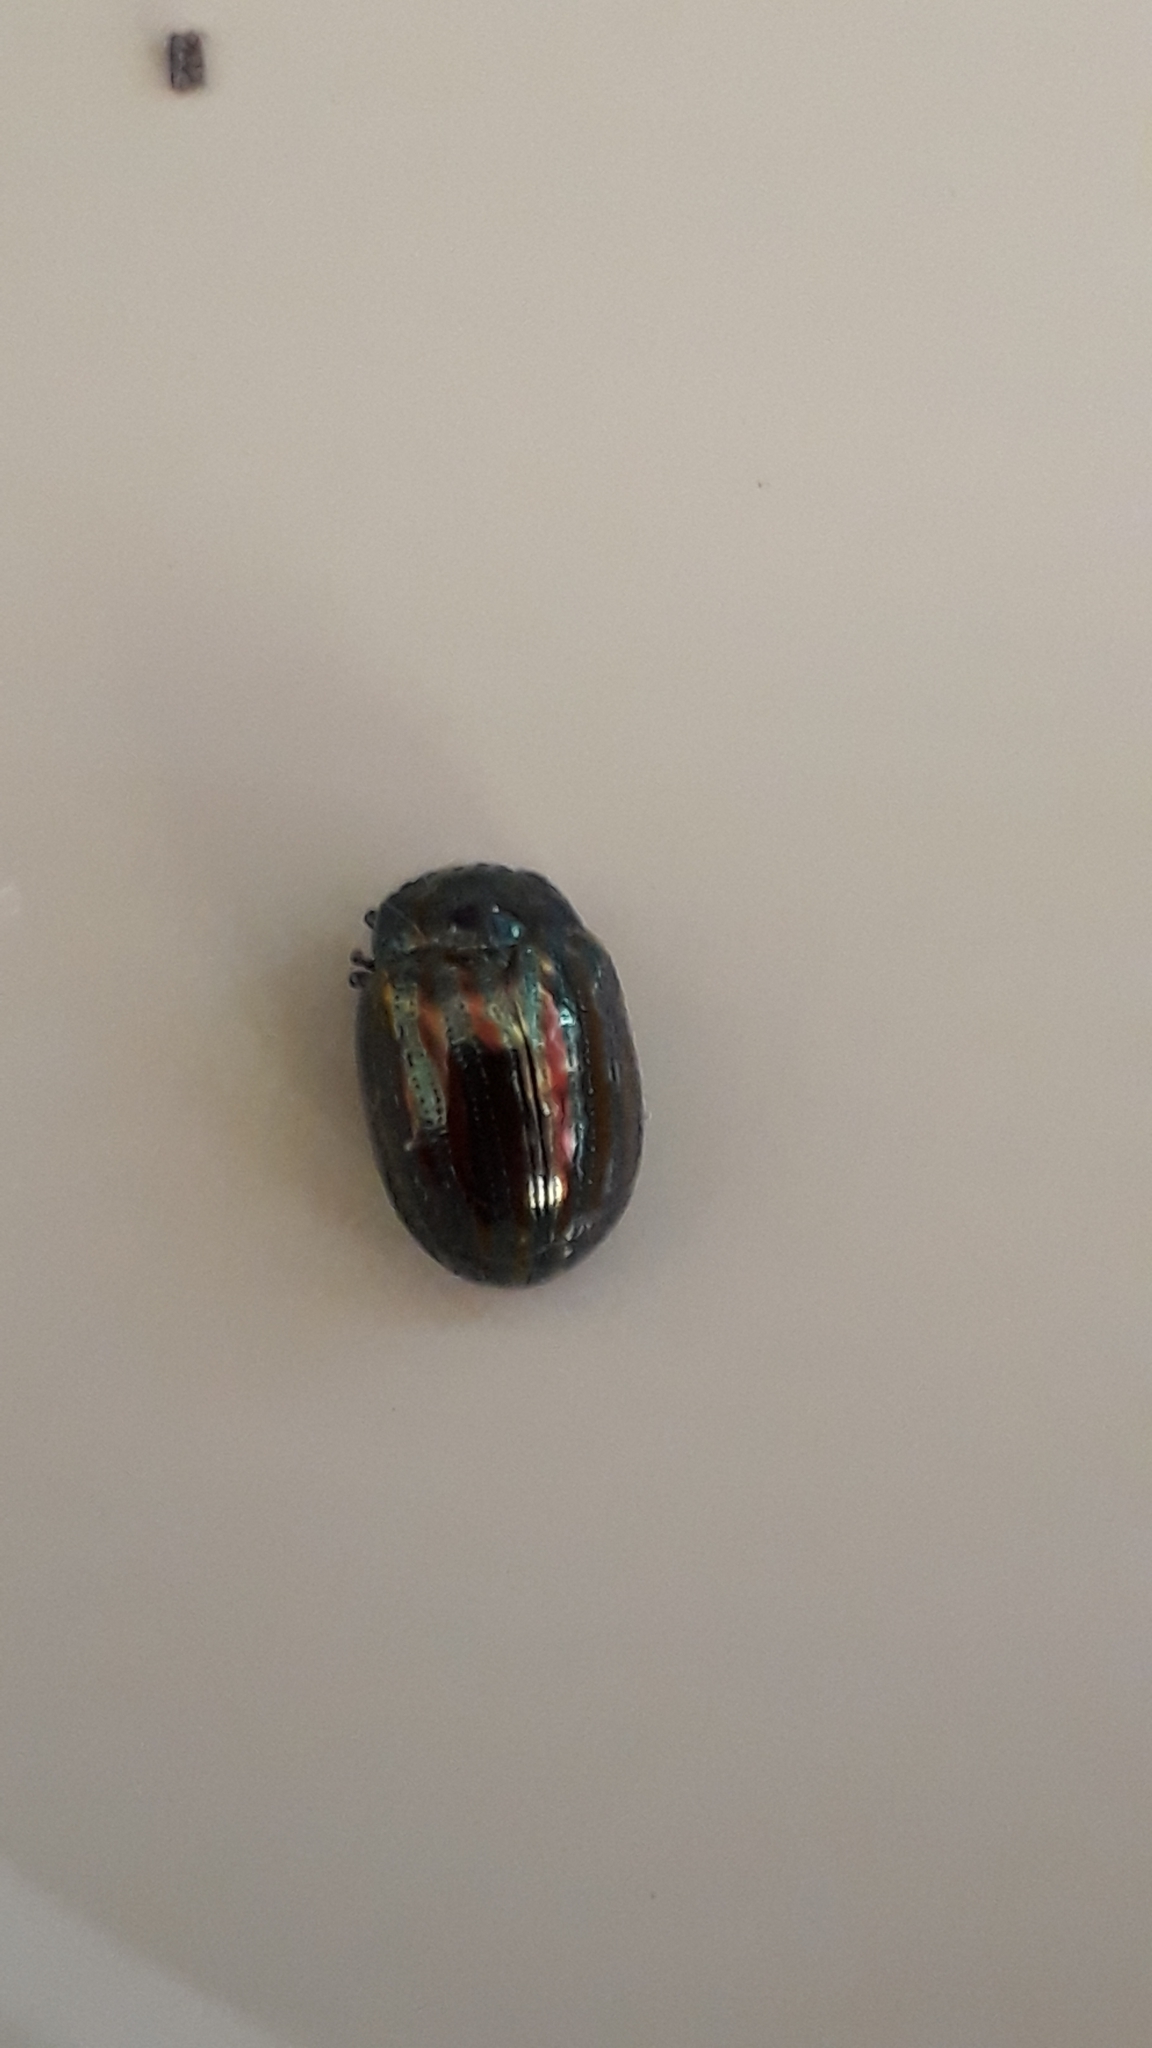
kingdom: Animalia
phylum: Arthropoda
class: Insecta
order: Coleoptera
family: Chrysomelidae
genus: Chrysolina
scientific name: Chrysolina americana
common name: Rosemary beetle
